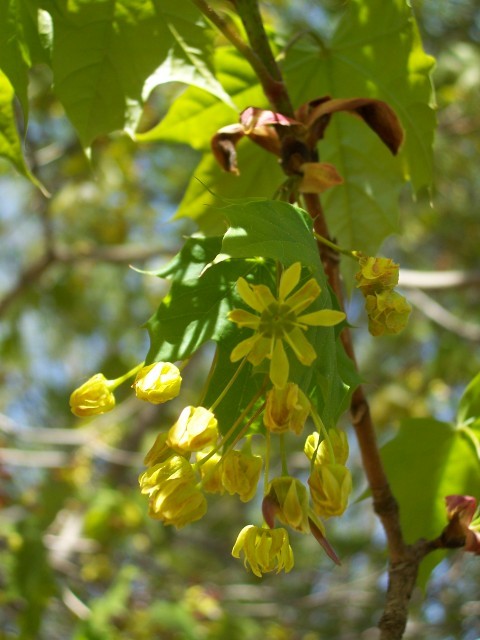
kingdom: Plantae
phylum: Tracheophyta
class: Magnoliopsida
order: Sapindales
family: Sapindaceae
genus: Acer
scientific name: Acer platanoides
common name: Norway maple
